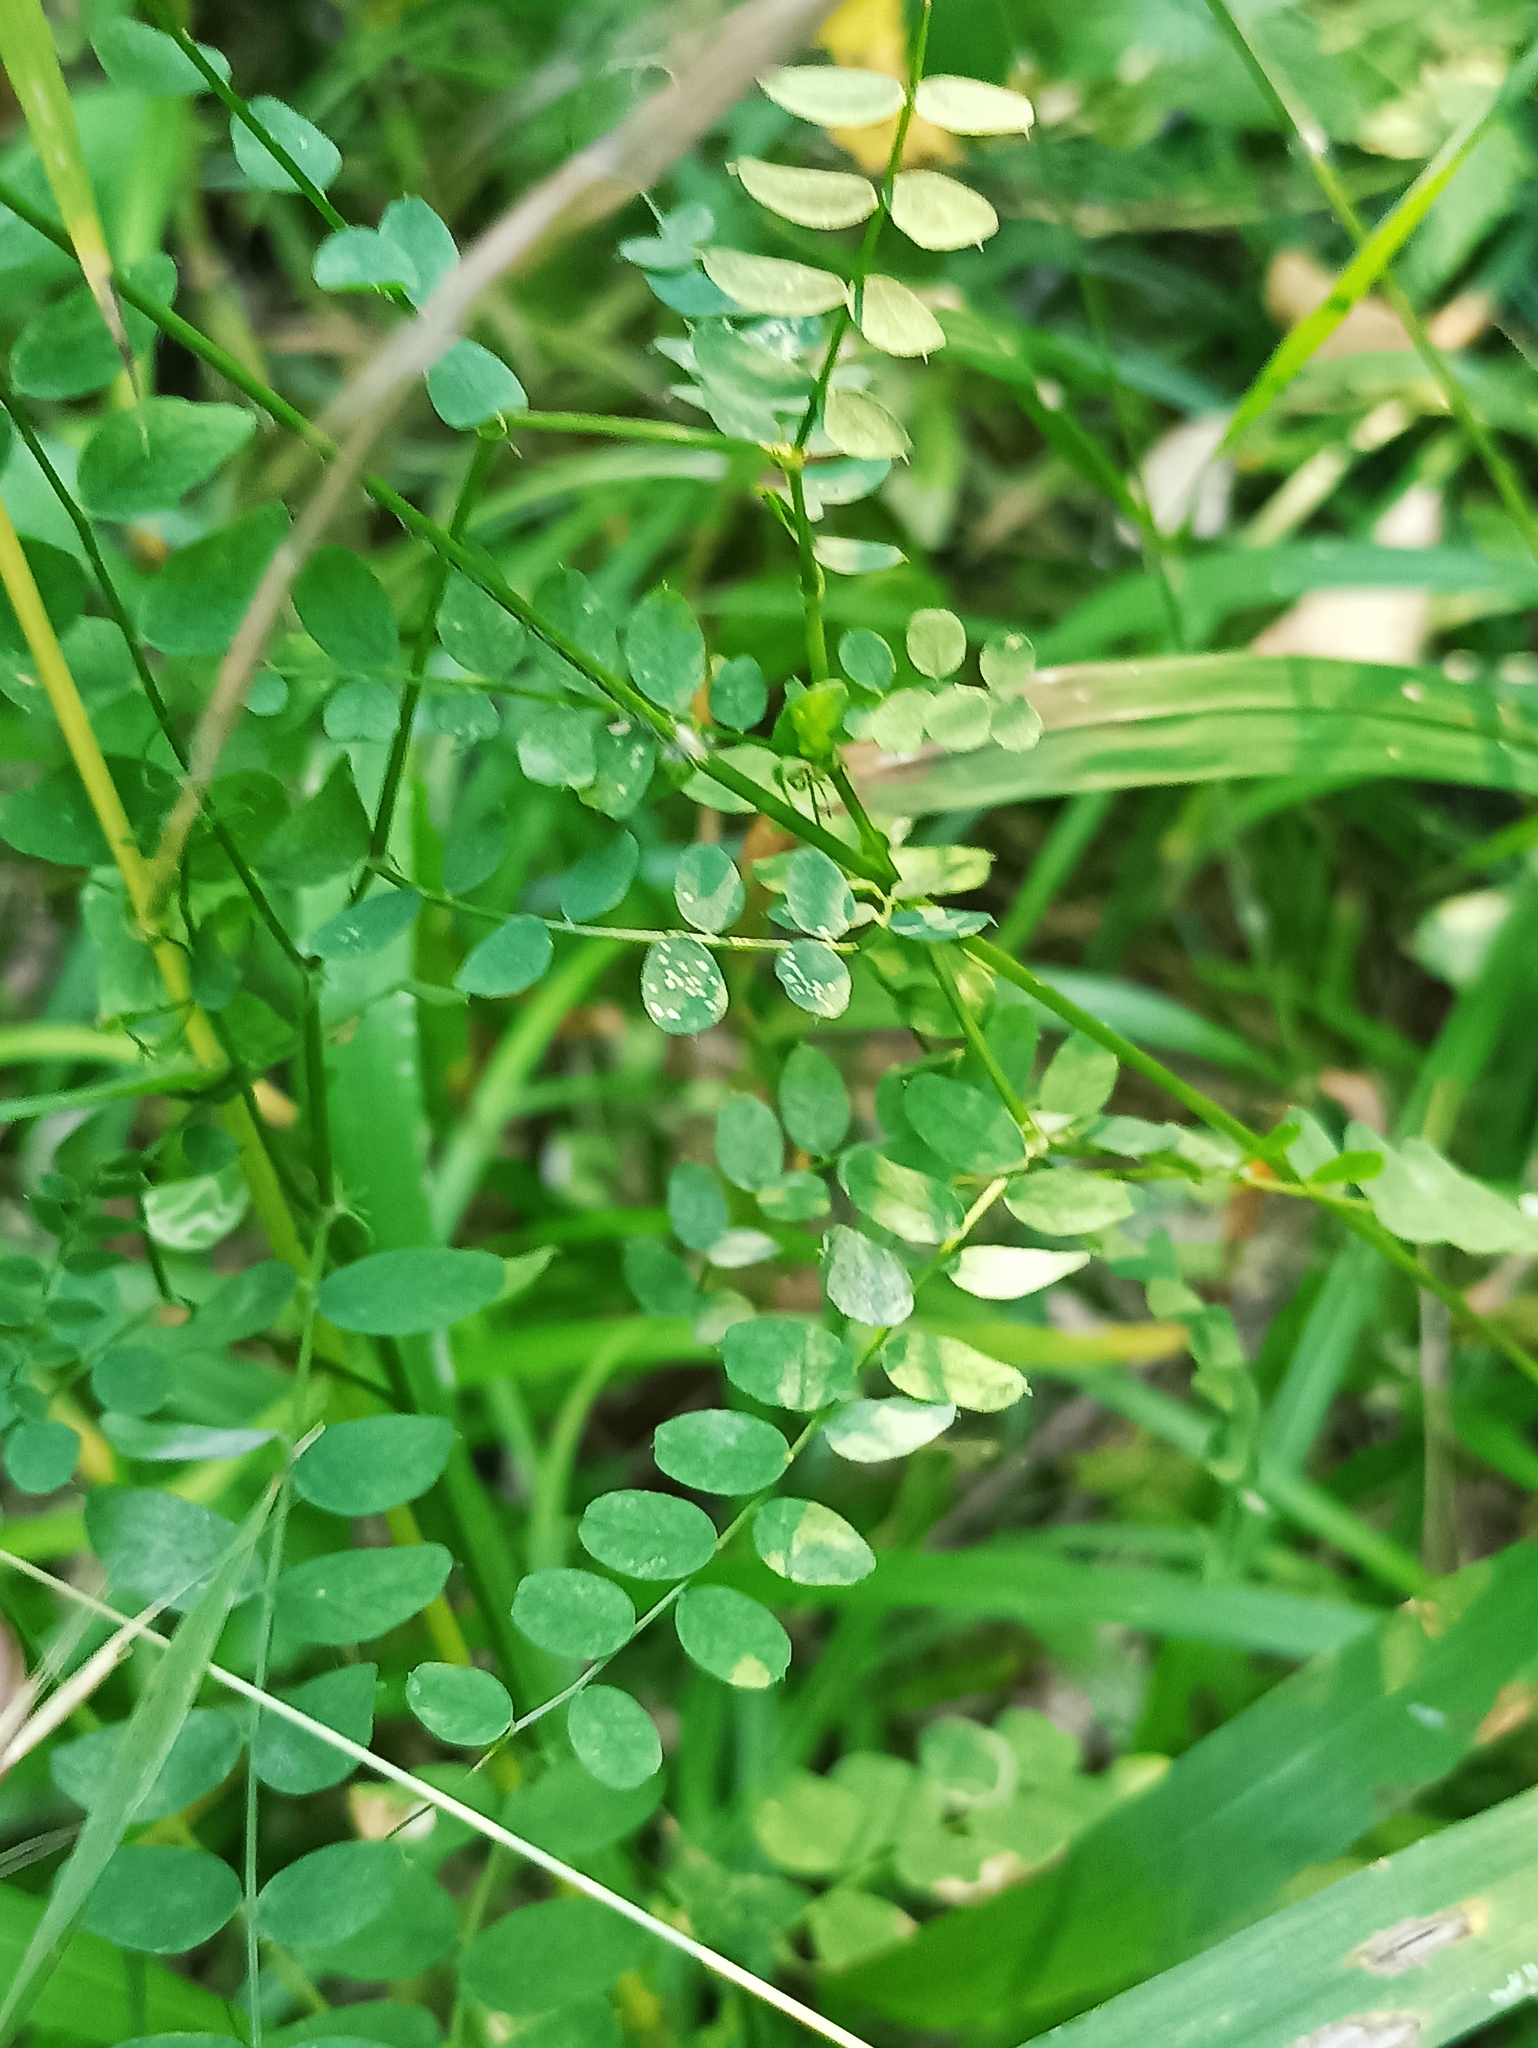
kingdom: Plantae
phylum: Tracheophyta
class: Magnoliopsida
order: Fabales
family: Fabaceae
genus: Vicia
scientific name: Vicia sylvatica
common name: Wood vetch
